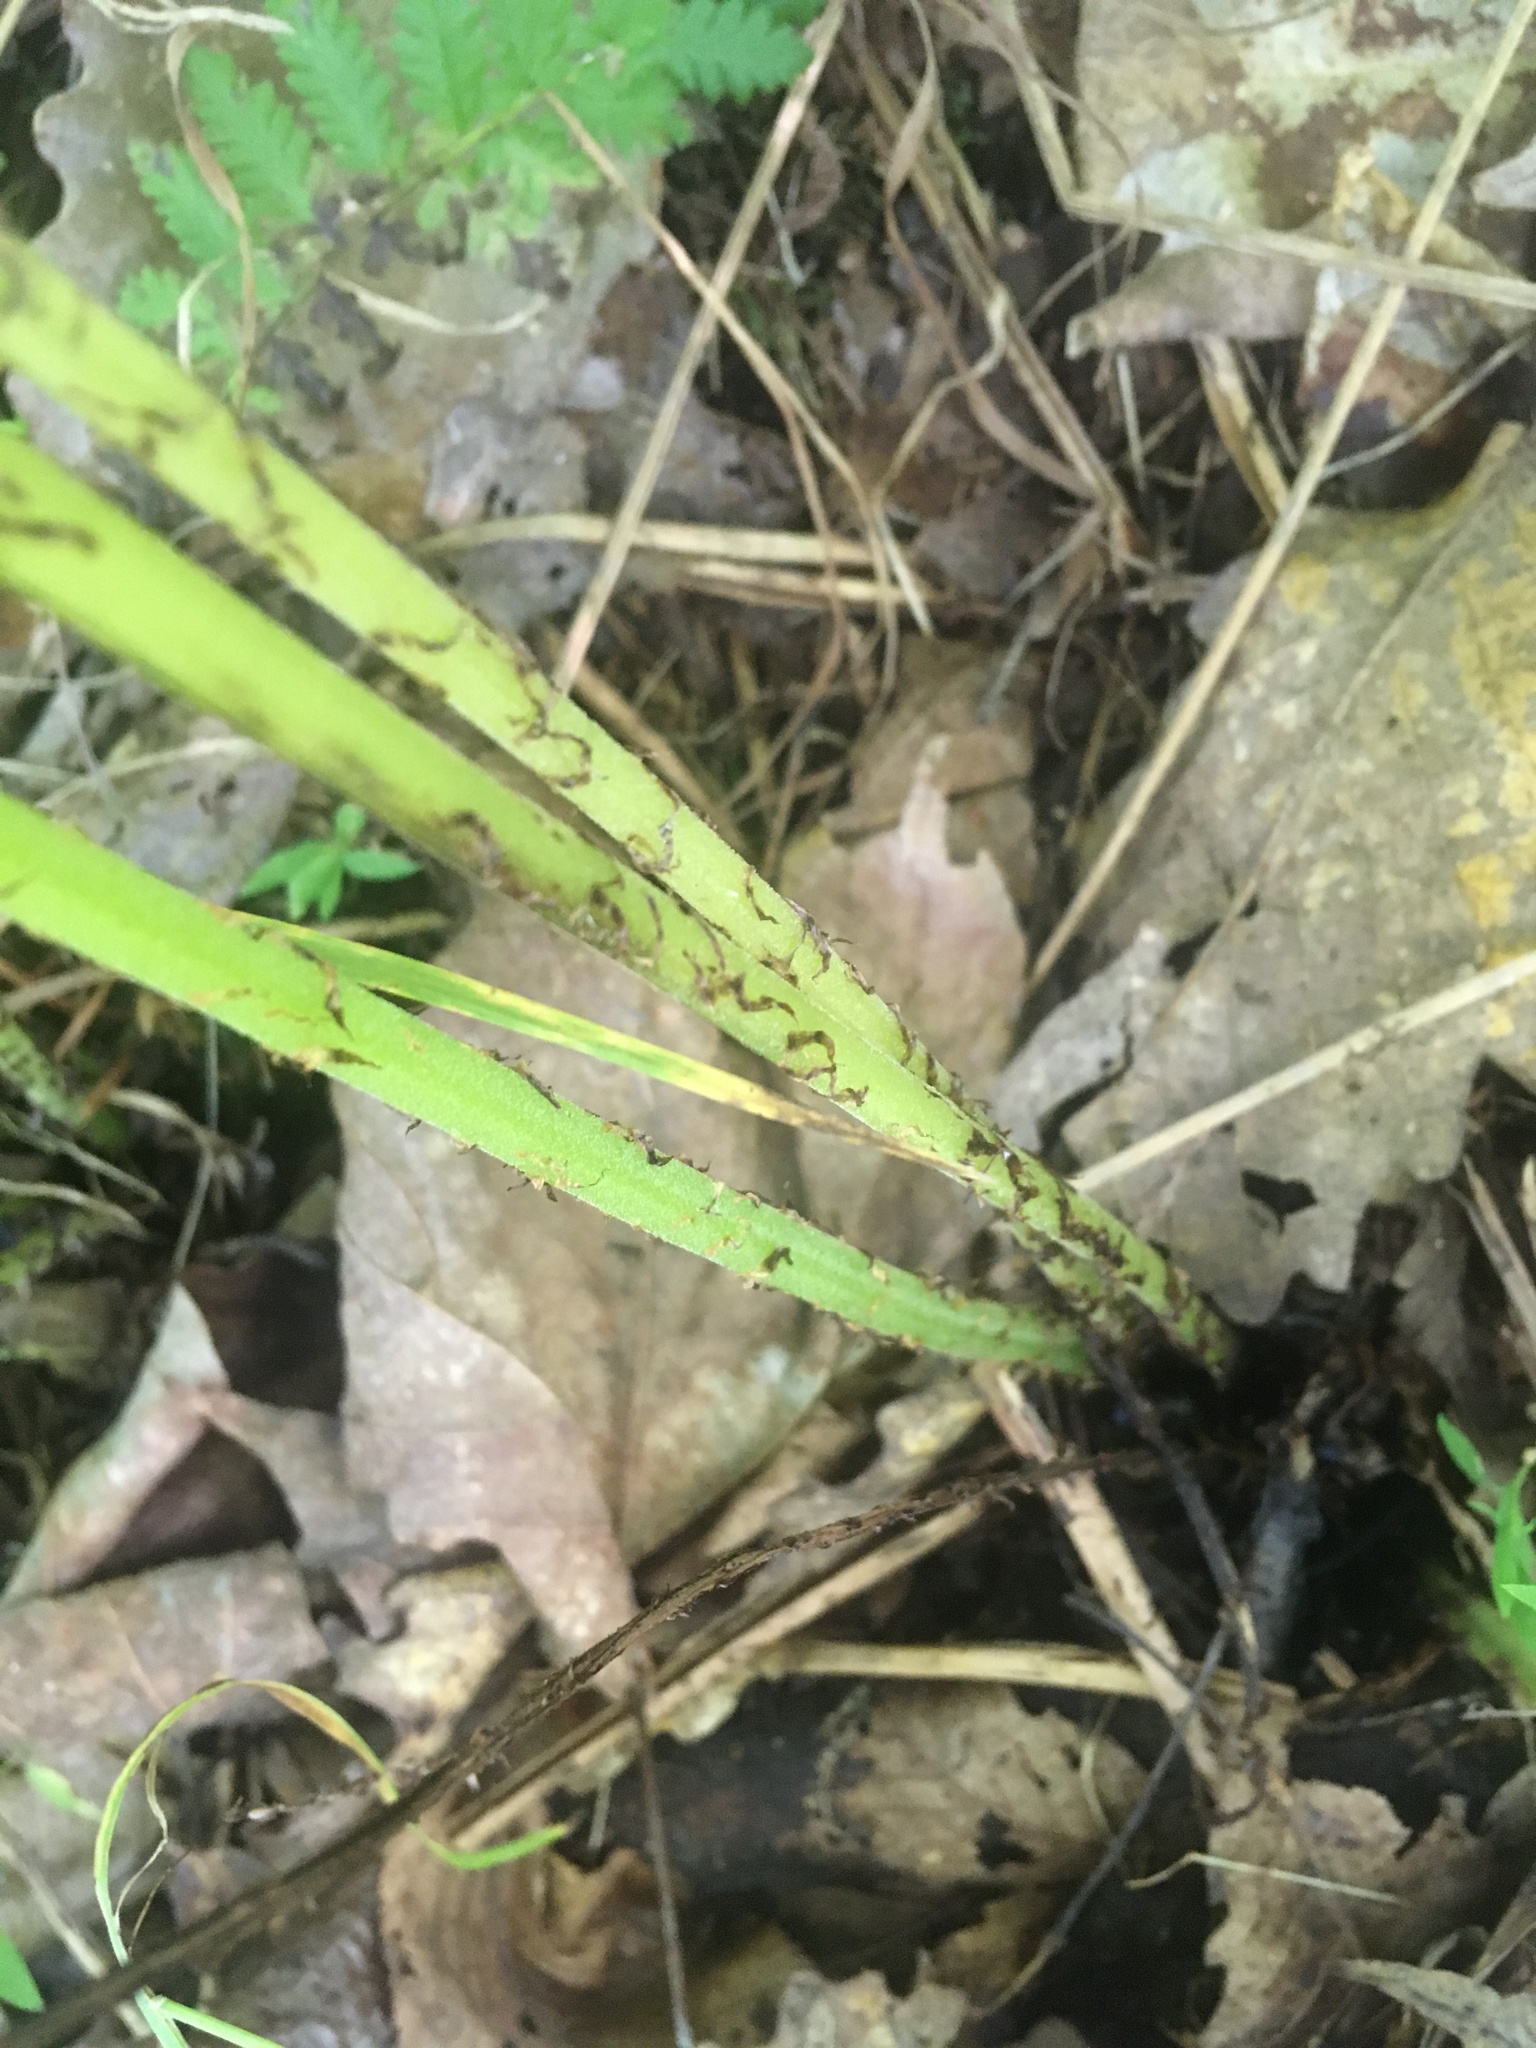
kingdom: Plantae
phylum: Tracheophyta
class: Polypodiopsida
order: Polypodiales
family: Athyriaceae
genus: Athyrium
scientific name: Athyrium angustum
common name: Northern lady fern
